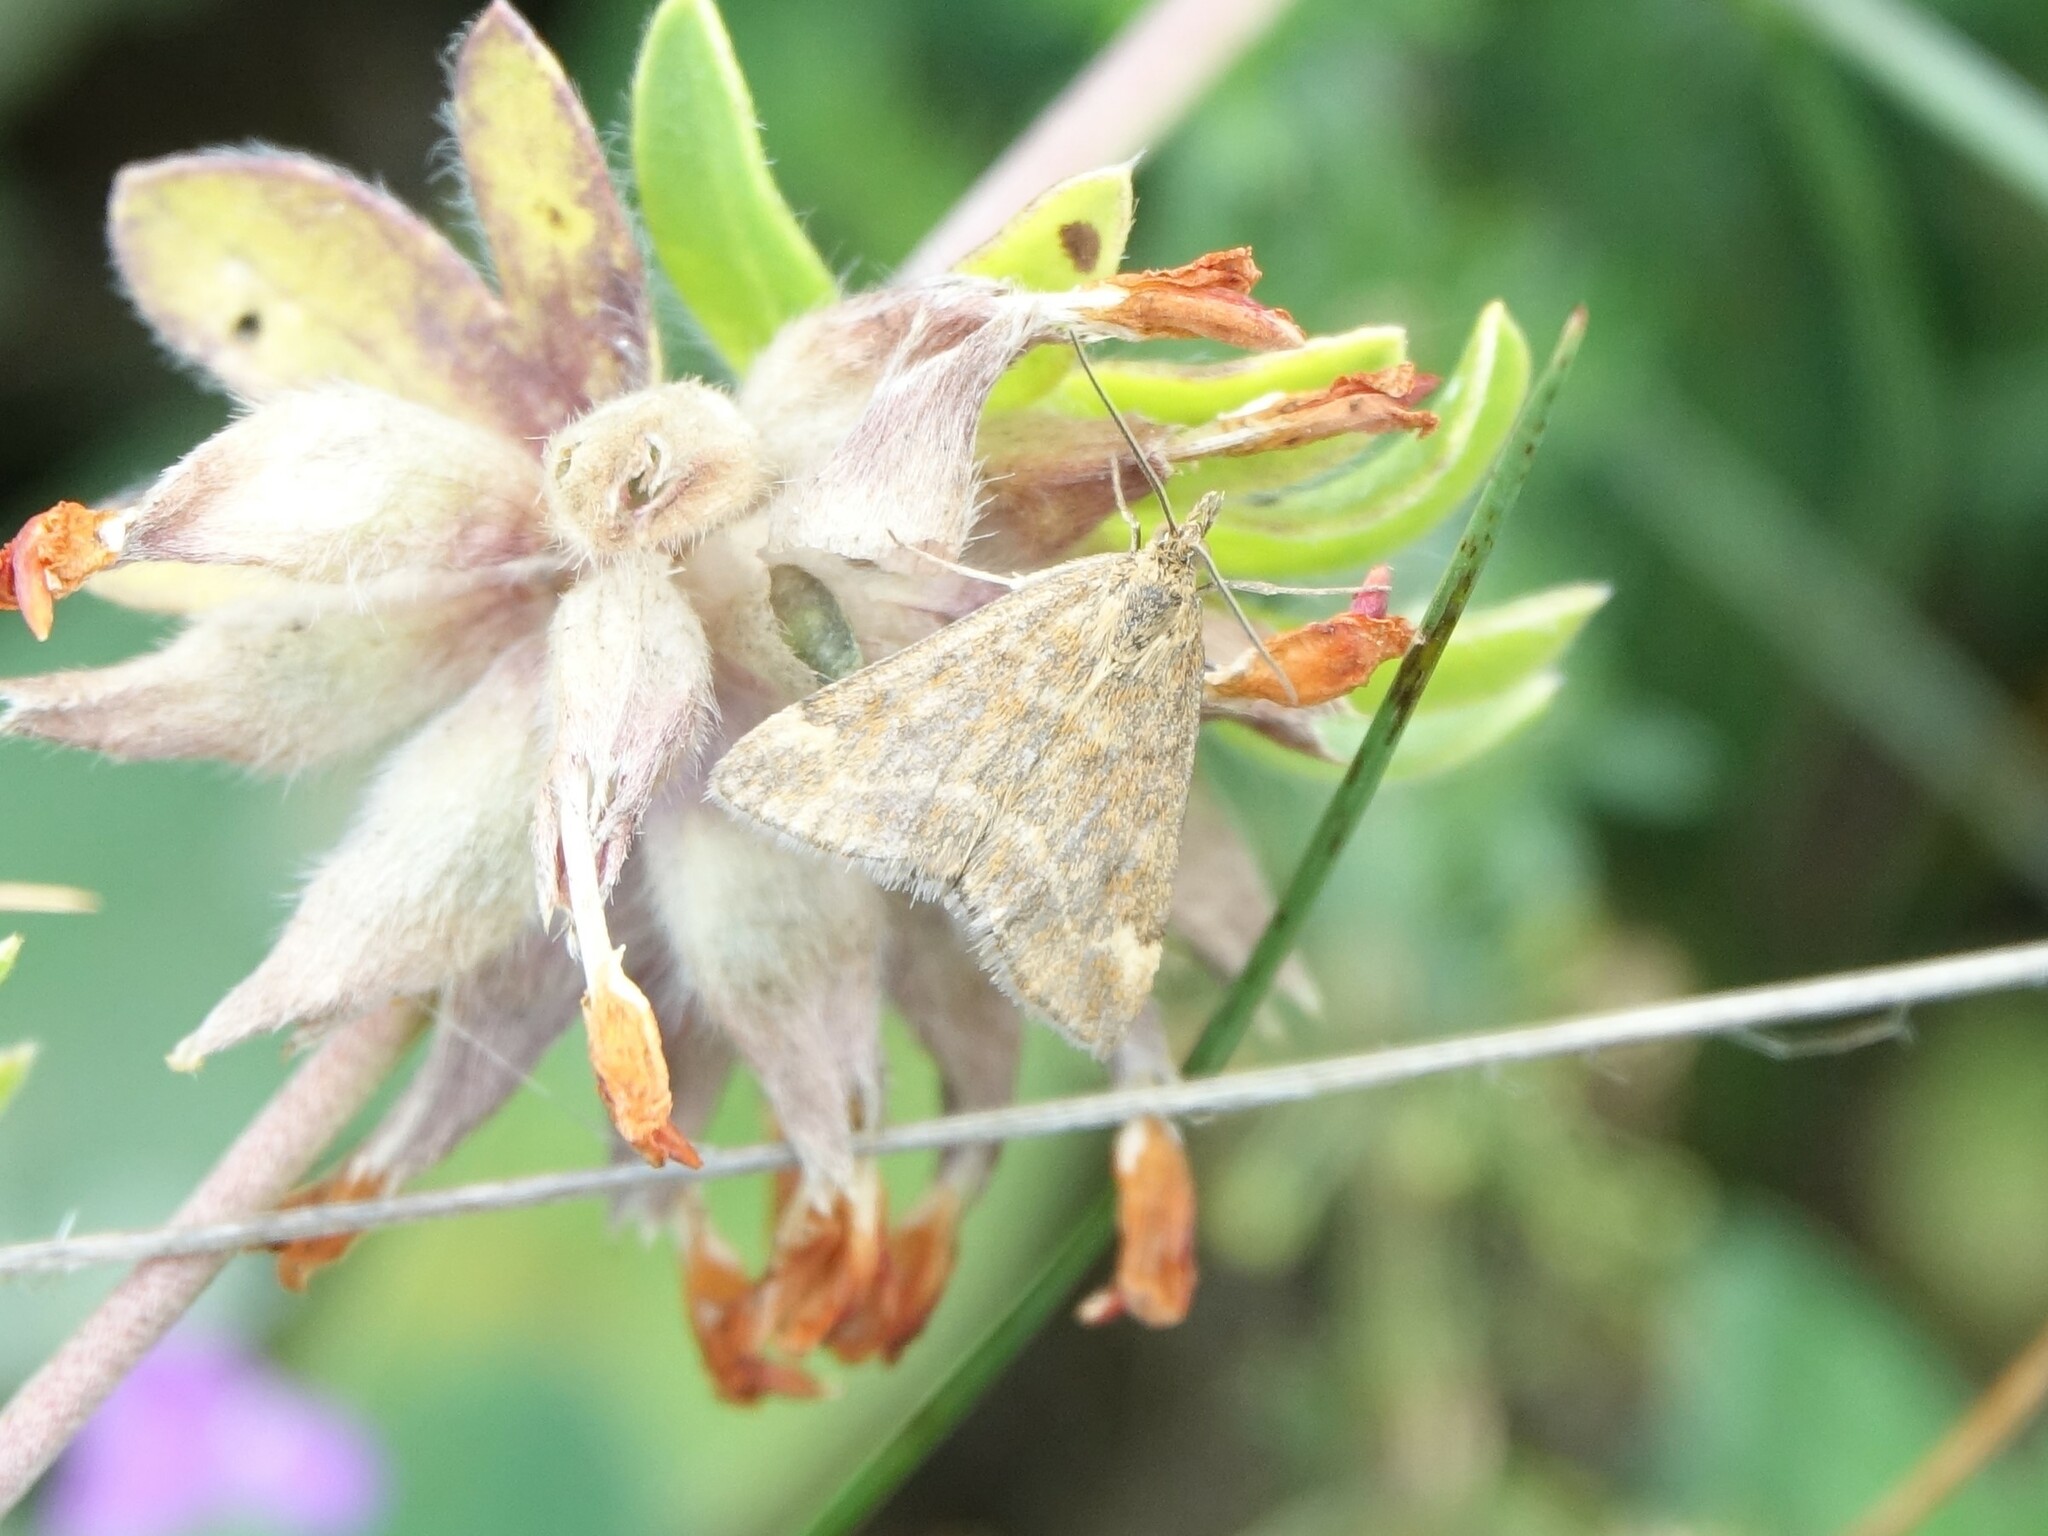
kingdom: Animalia
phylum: Arthropoda
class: Insecta
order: Lepidoptera
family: Crambidae
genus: Pyrausta
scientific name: Pyrausta despicata
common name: Straw-barred pearl
